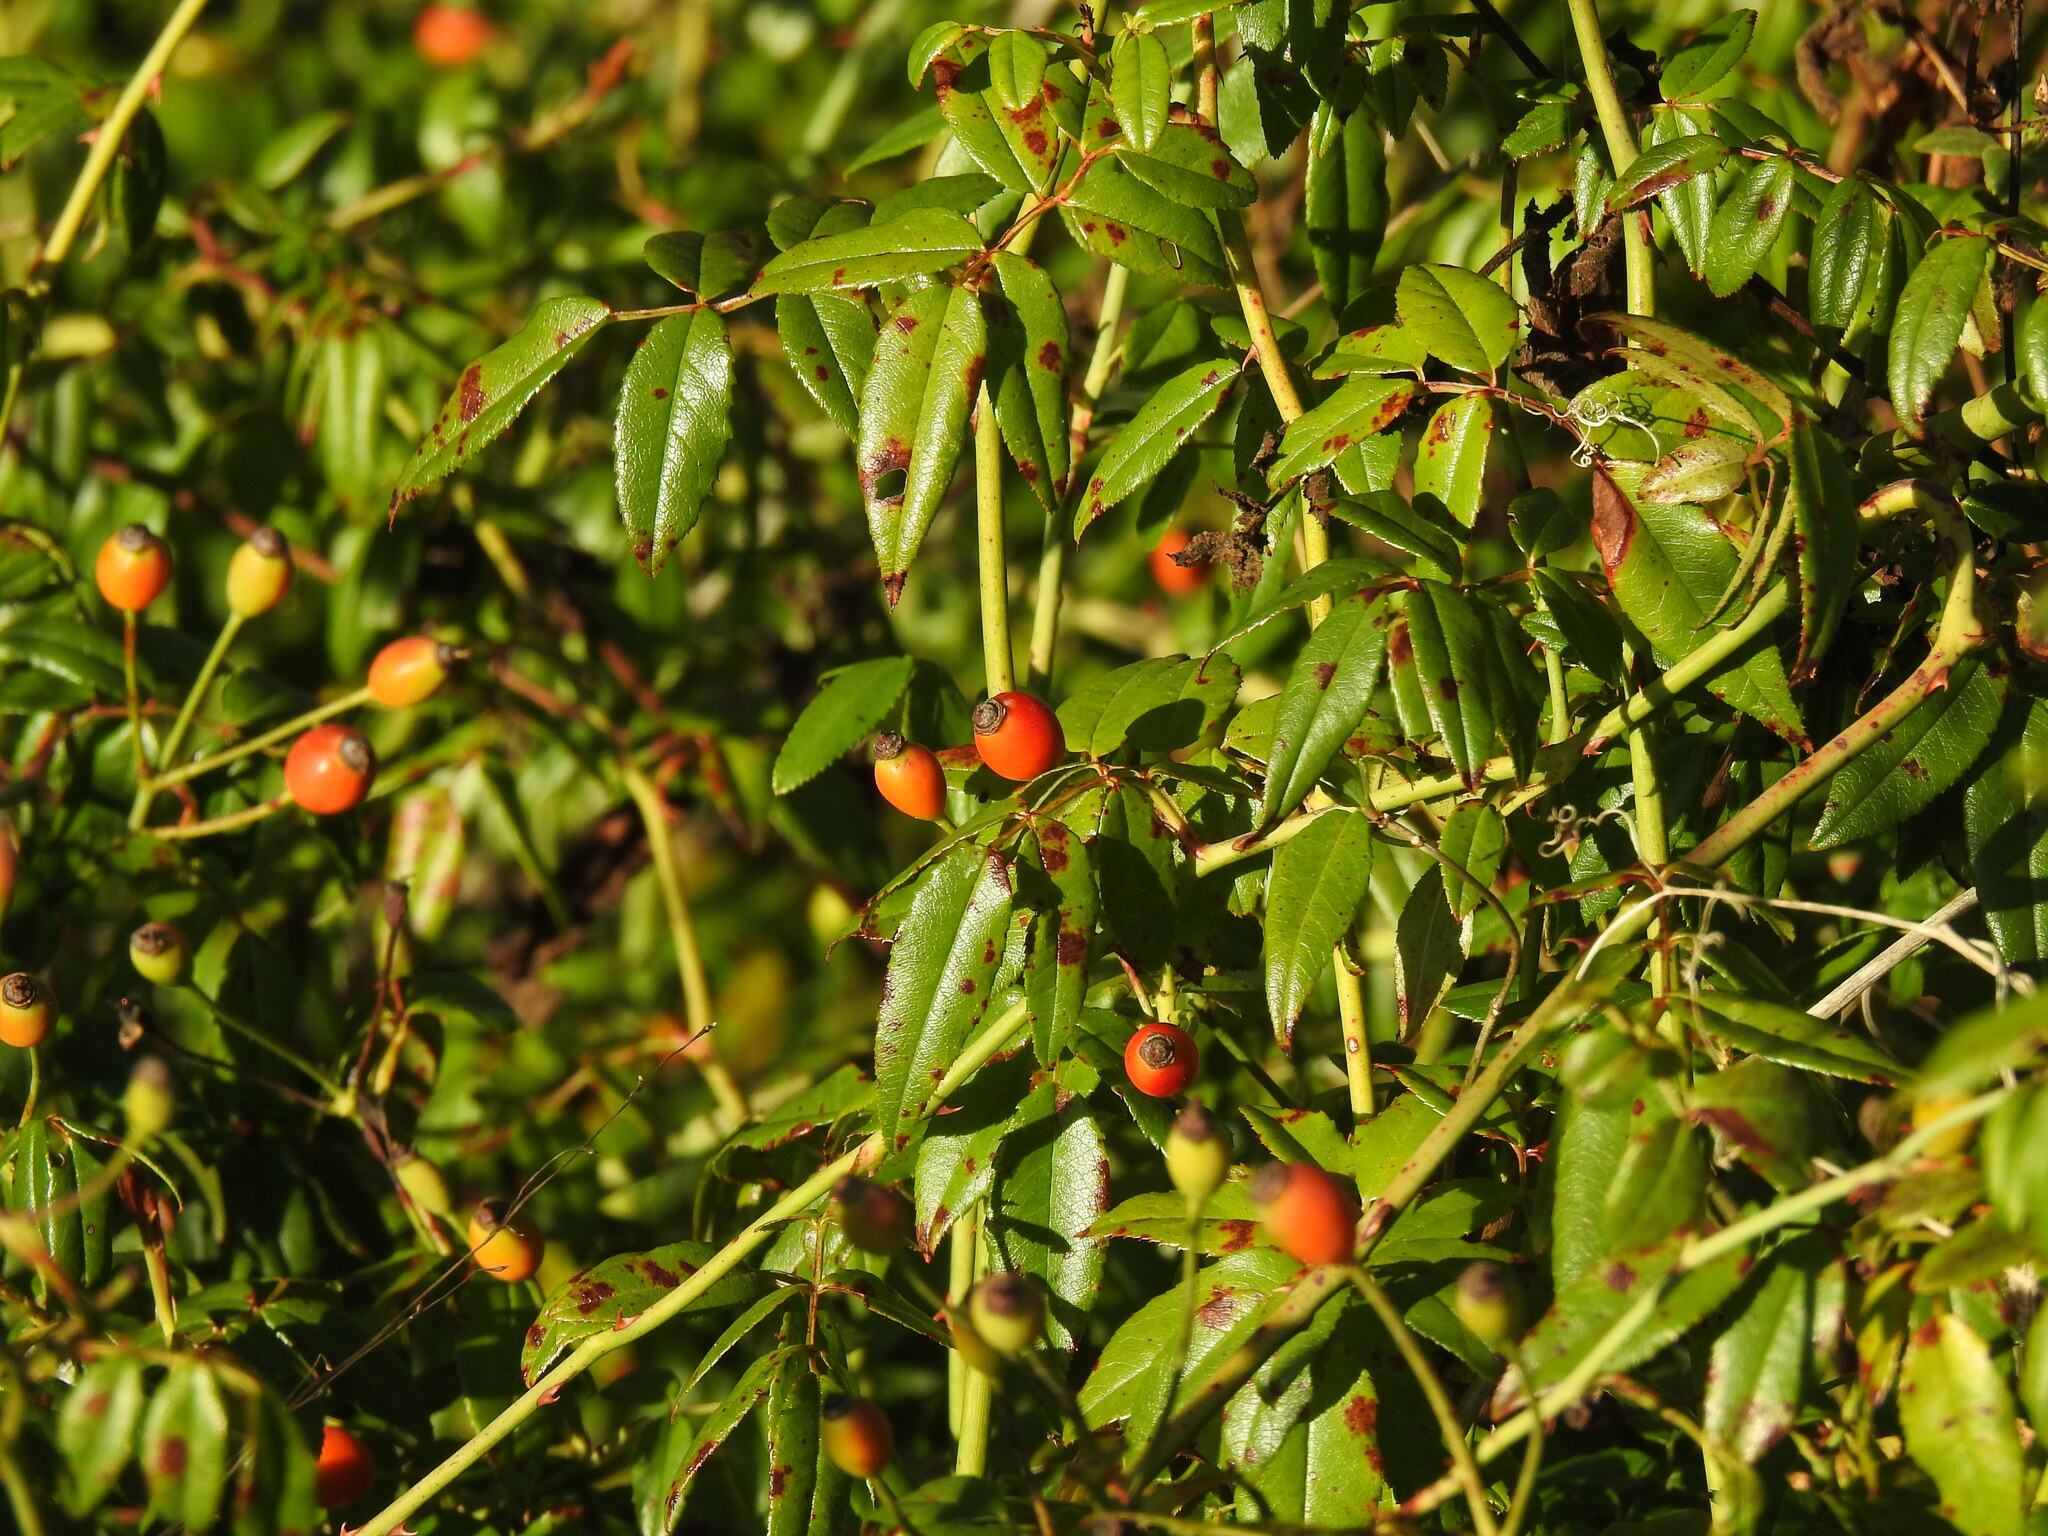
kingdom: Plantae
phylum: Tracheophyta
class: Magnoliopsida
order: Rosales
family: Rosaceae
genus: Rosa
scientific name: Rosa sempervirens
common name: Evergreen rose
